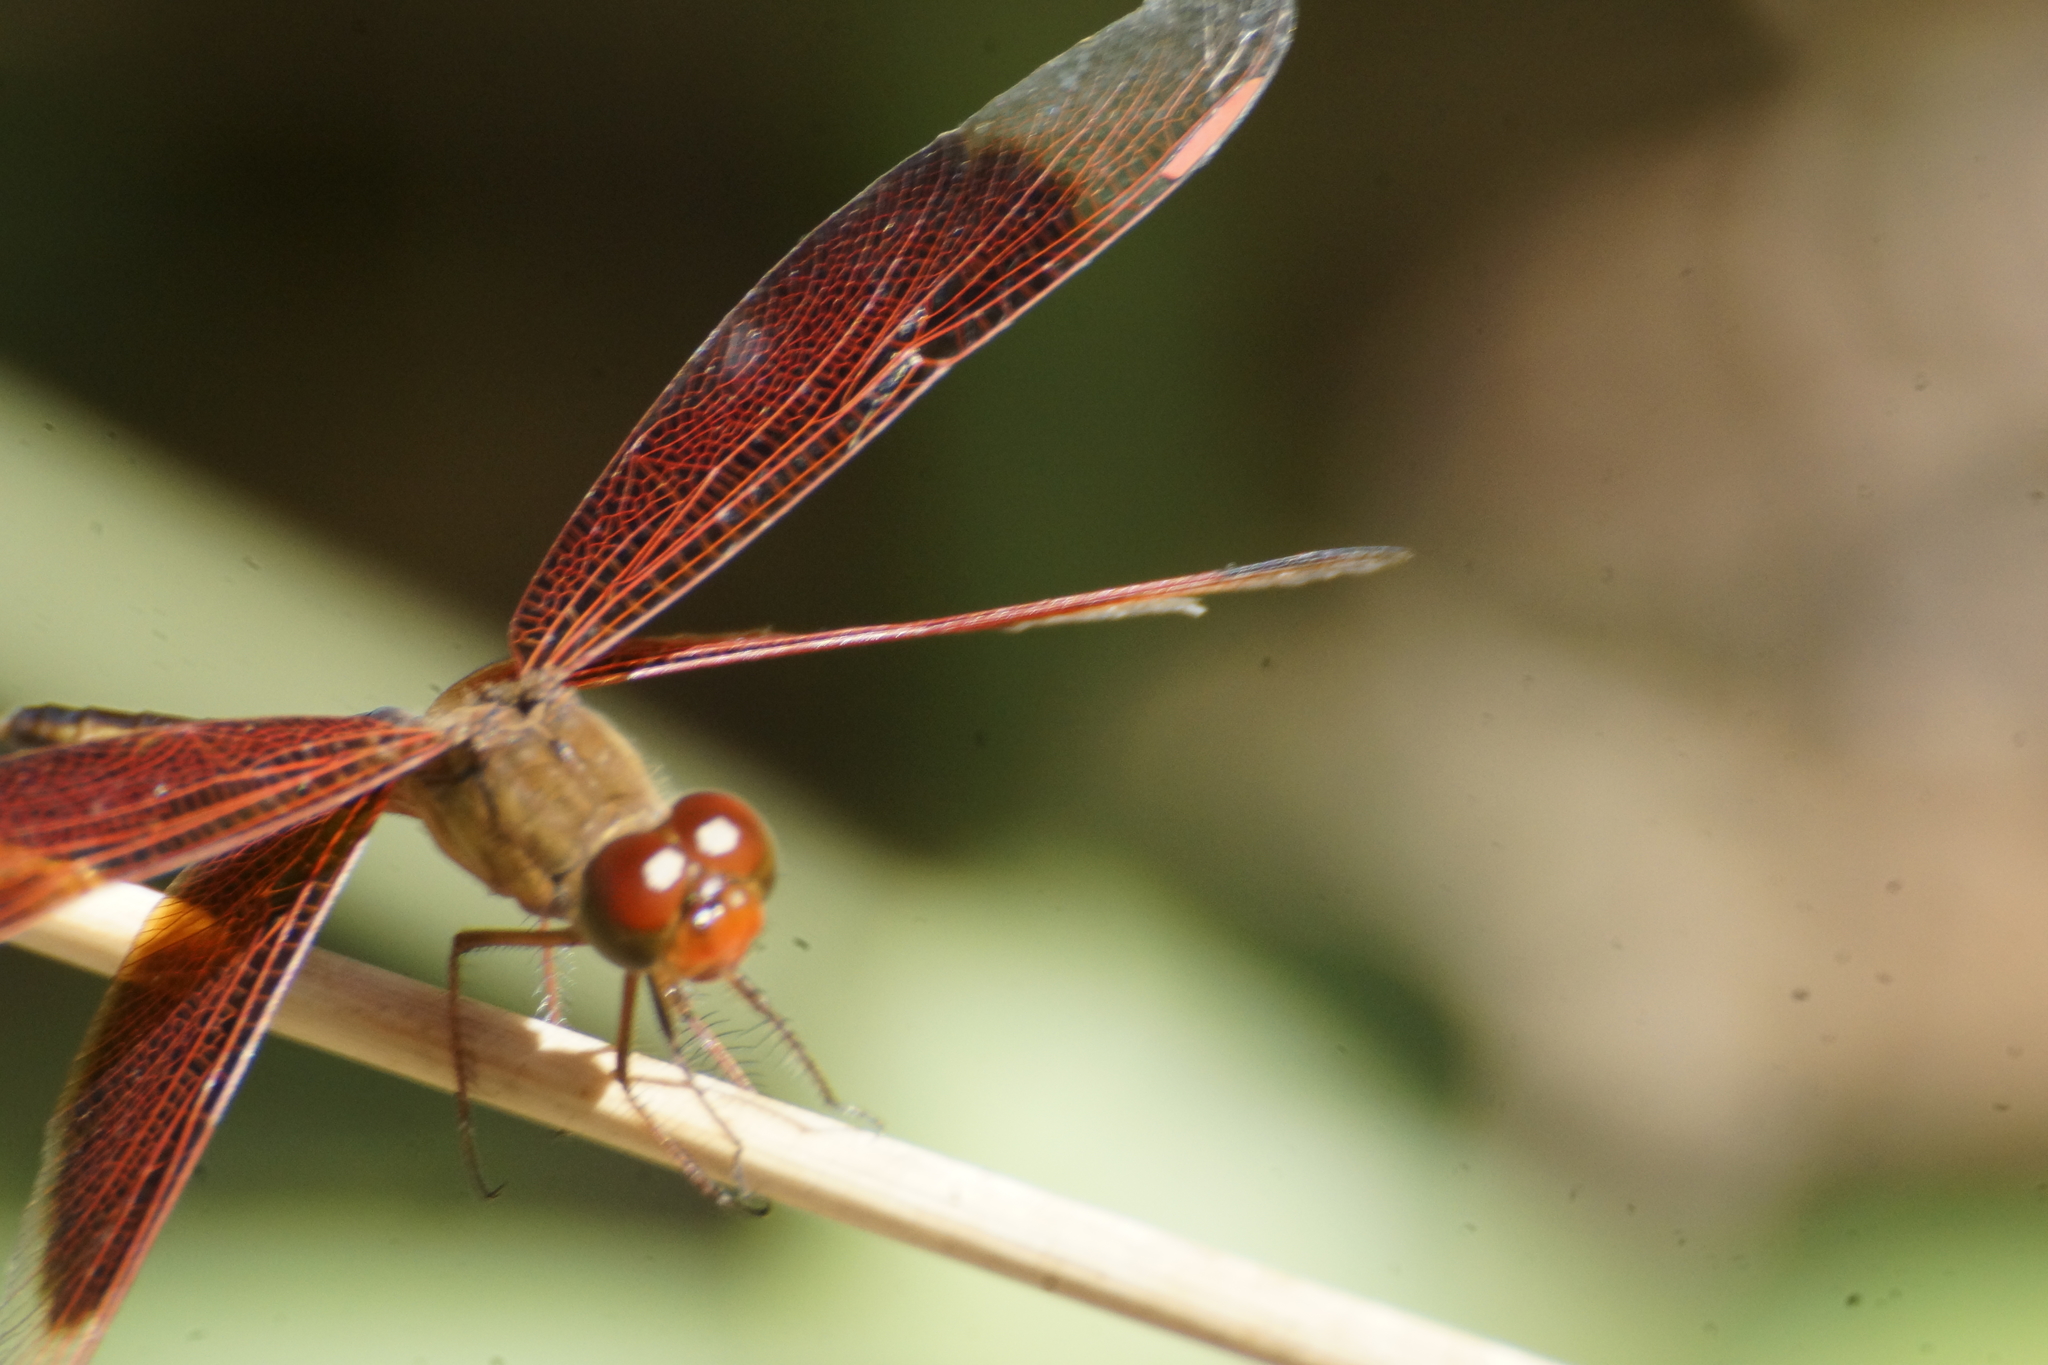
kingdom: Animalia
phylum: Arthropoda
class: Insecta
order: Odonata
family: Libellulidae
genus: Neurothemis
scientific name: Neurothemis stigmatizans
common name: Painted grasshawk
